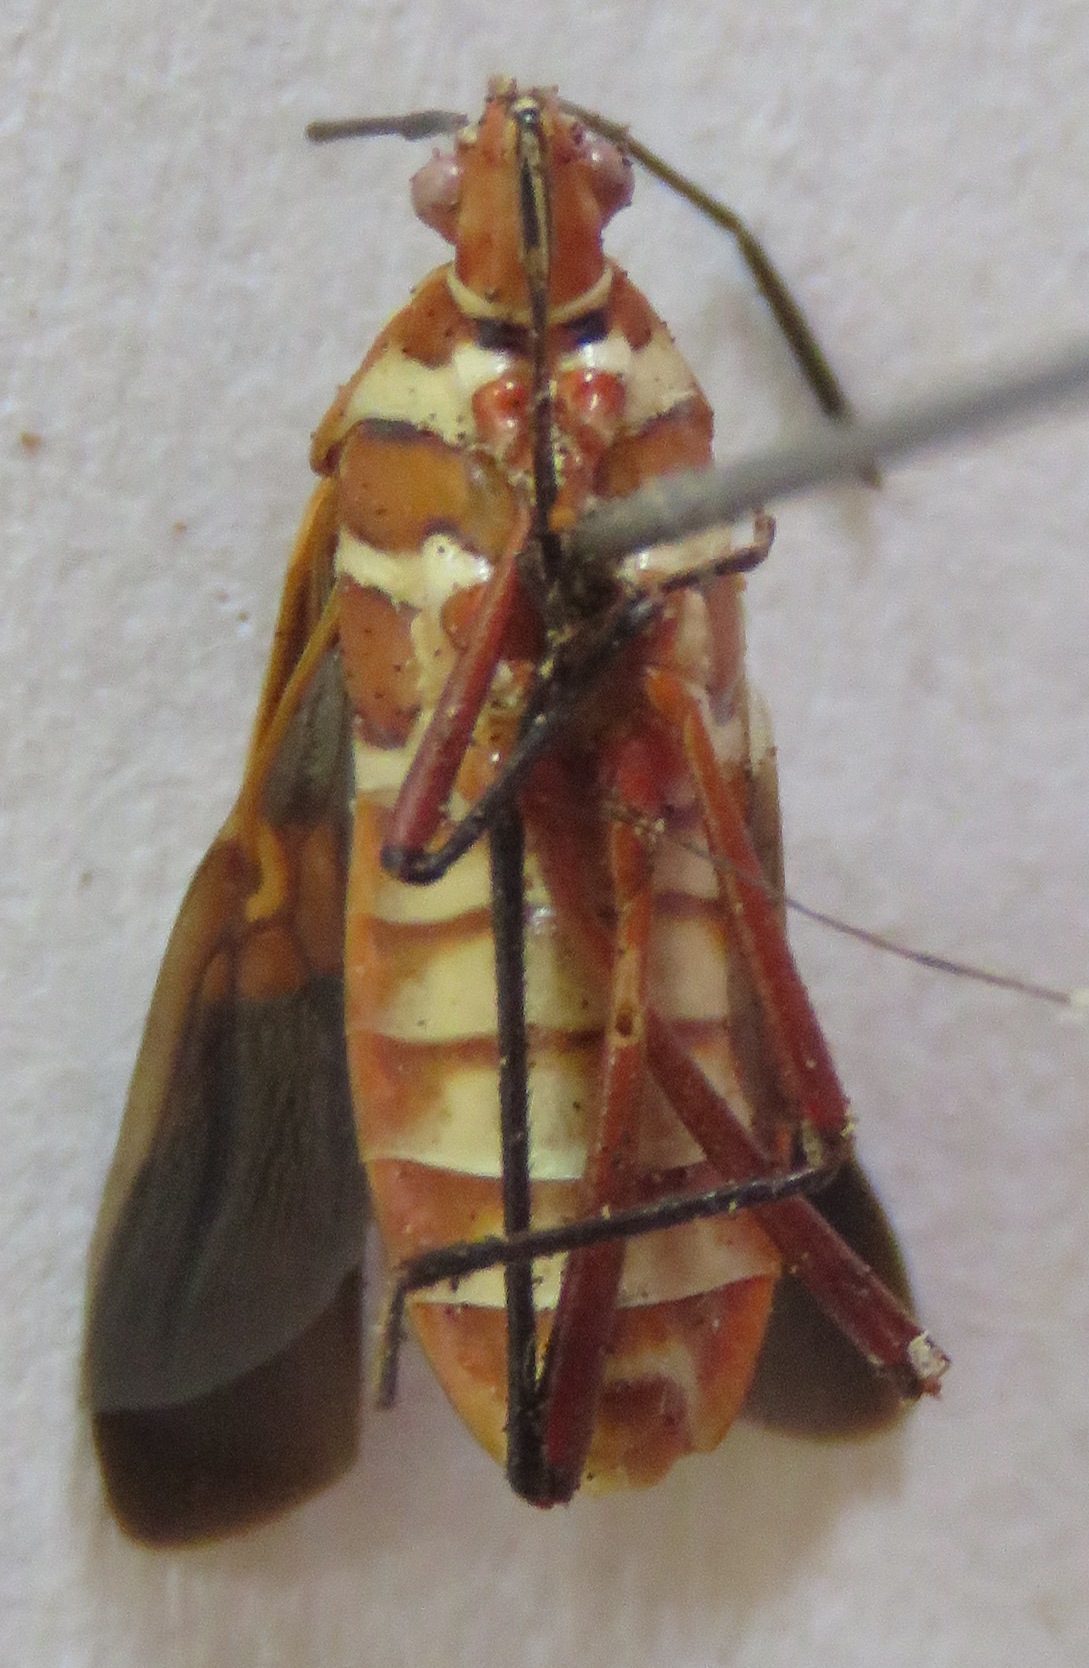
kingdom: Animalia
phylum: Arthropoda
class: Insecta
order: Hemiptera
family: Coreidae
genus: Hypselonotus
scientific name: Hypselonotus interruptus
